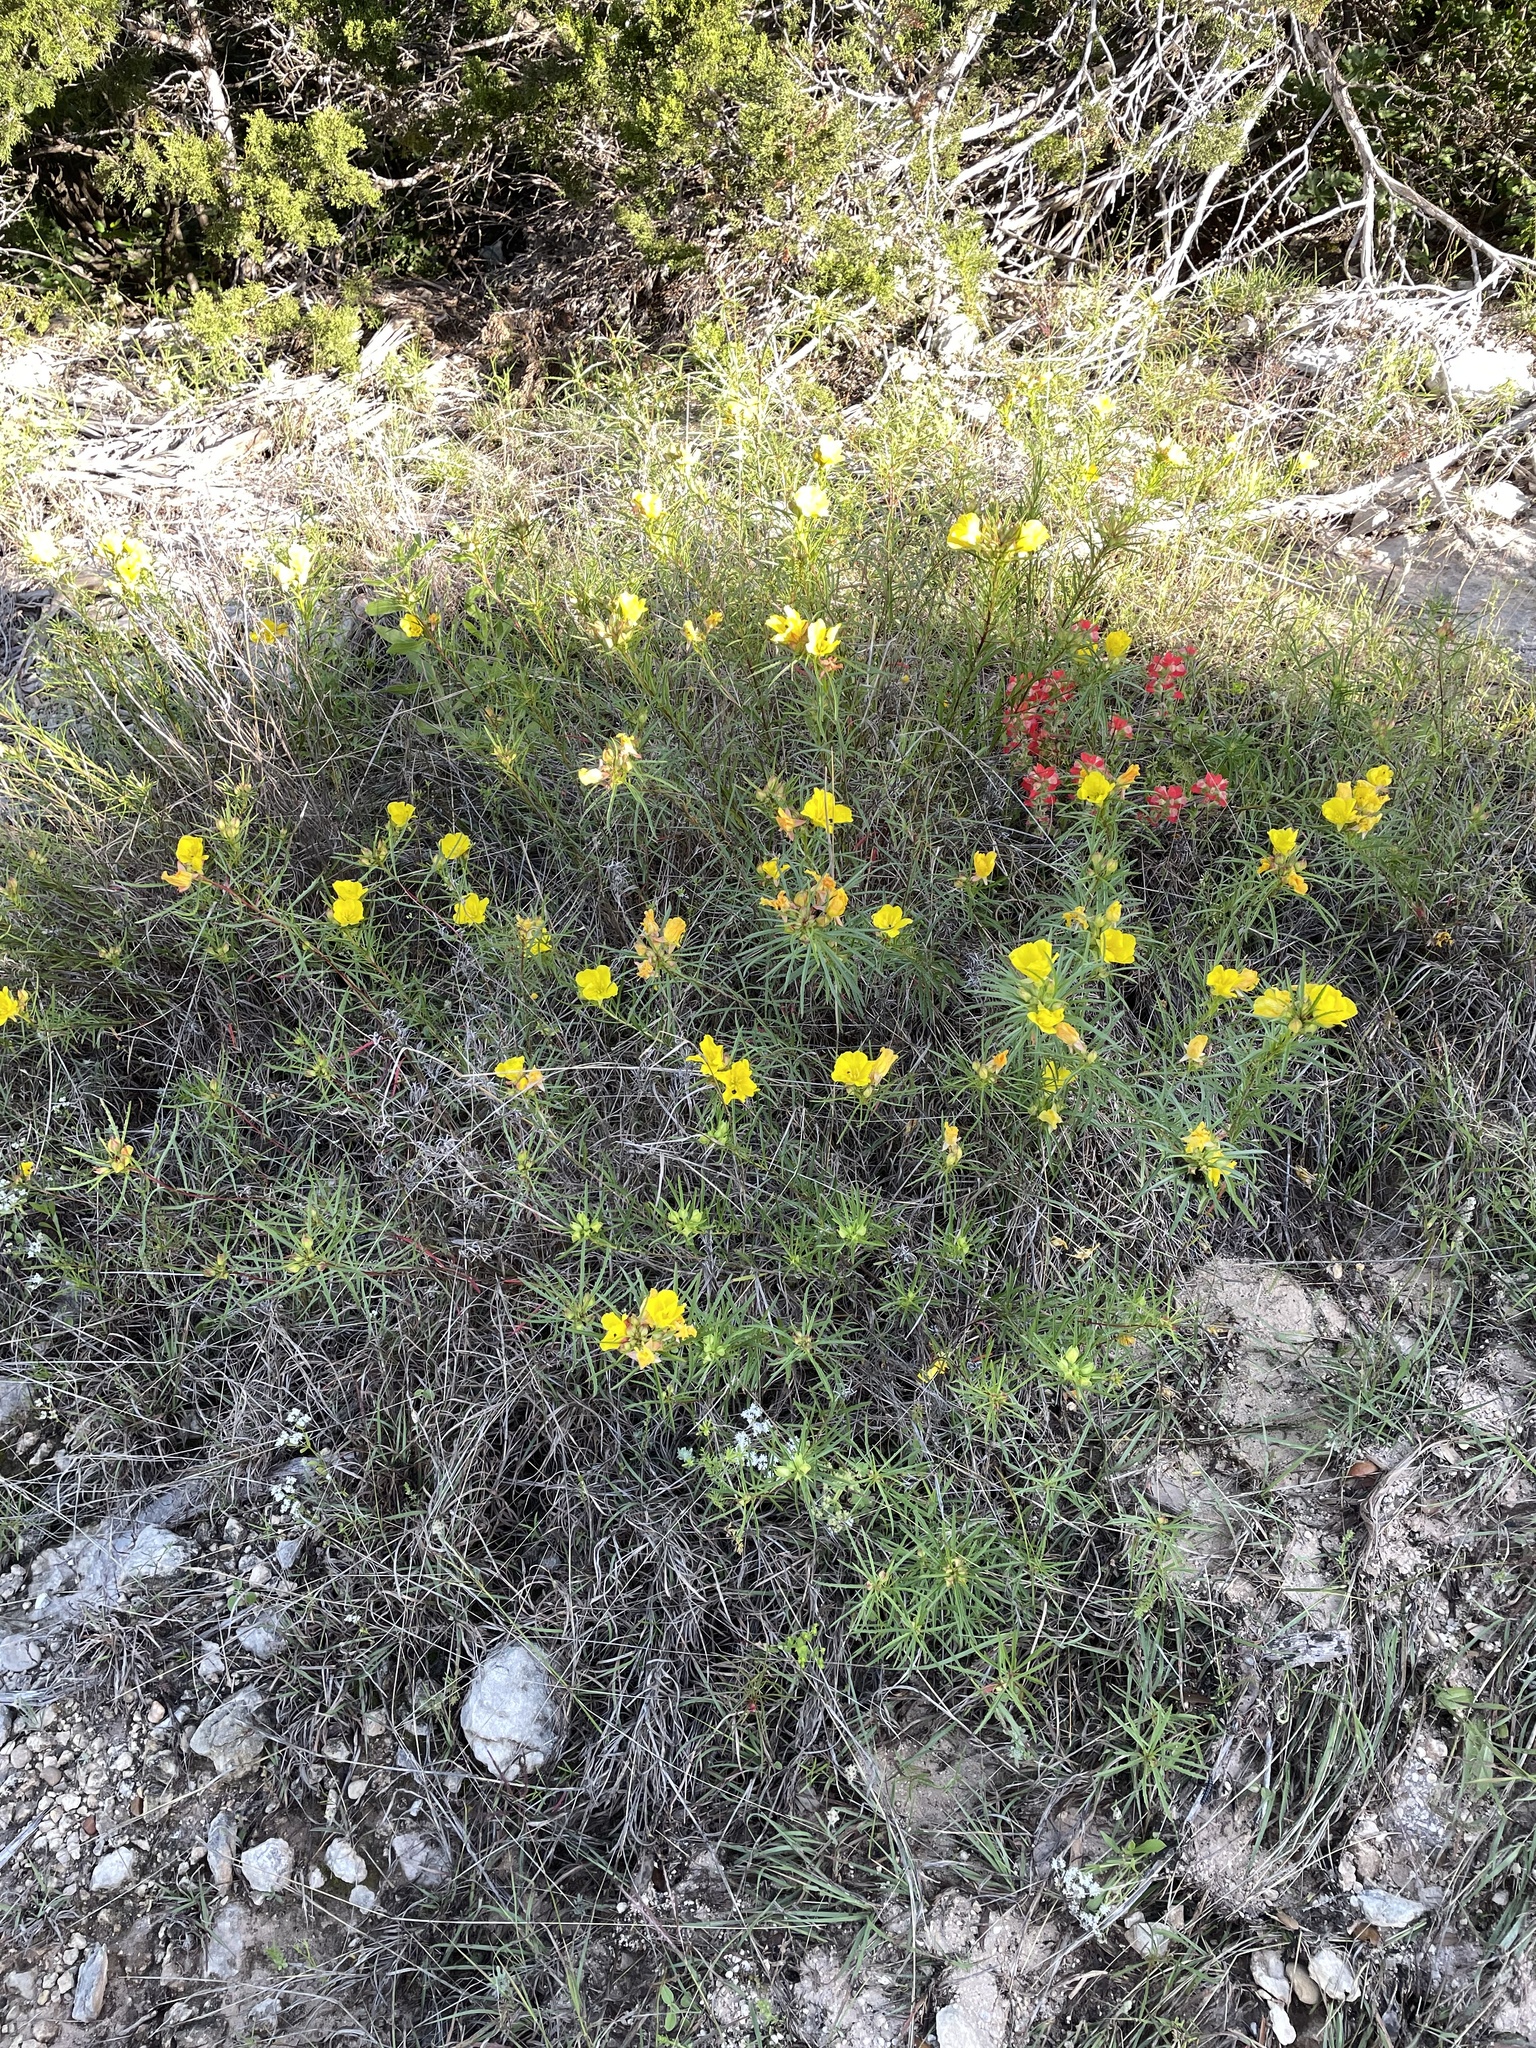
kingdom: Plantae
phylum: Tracheophyta
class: Magnoliopsida
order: Myrtales
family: Onagraceae
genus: Oenothera
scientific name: Oenothera
